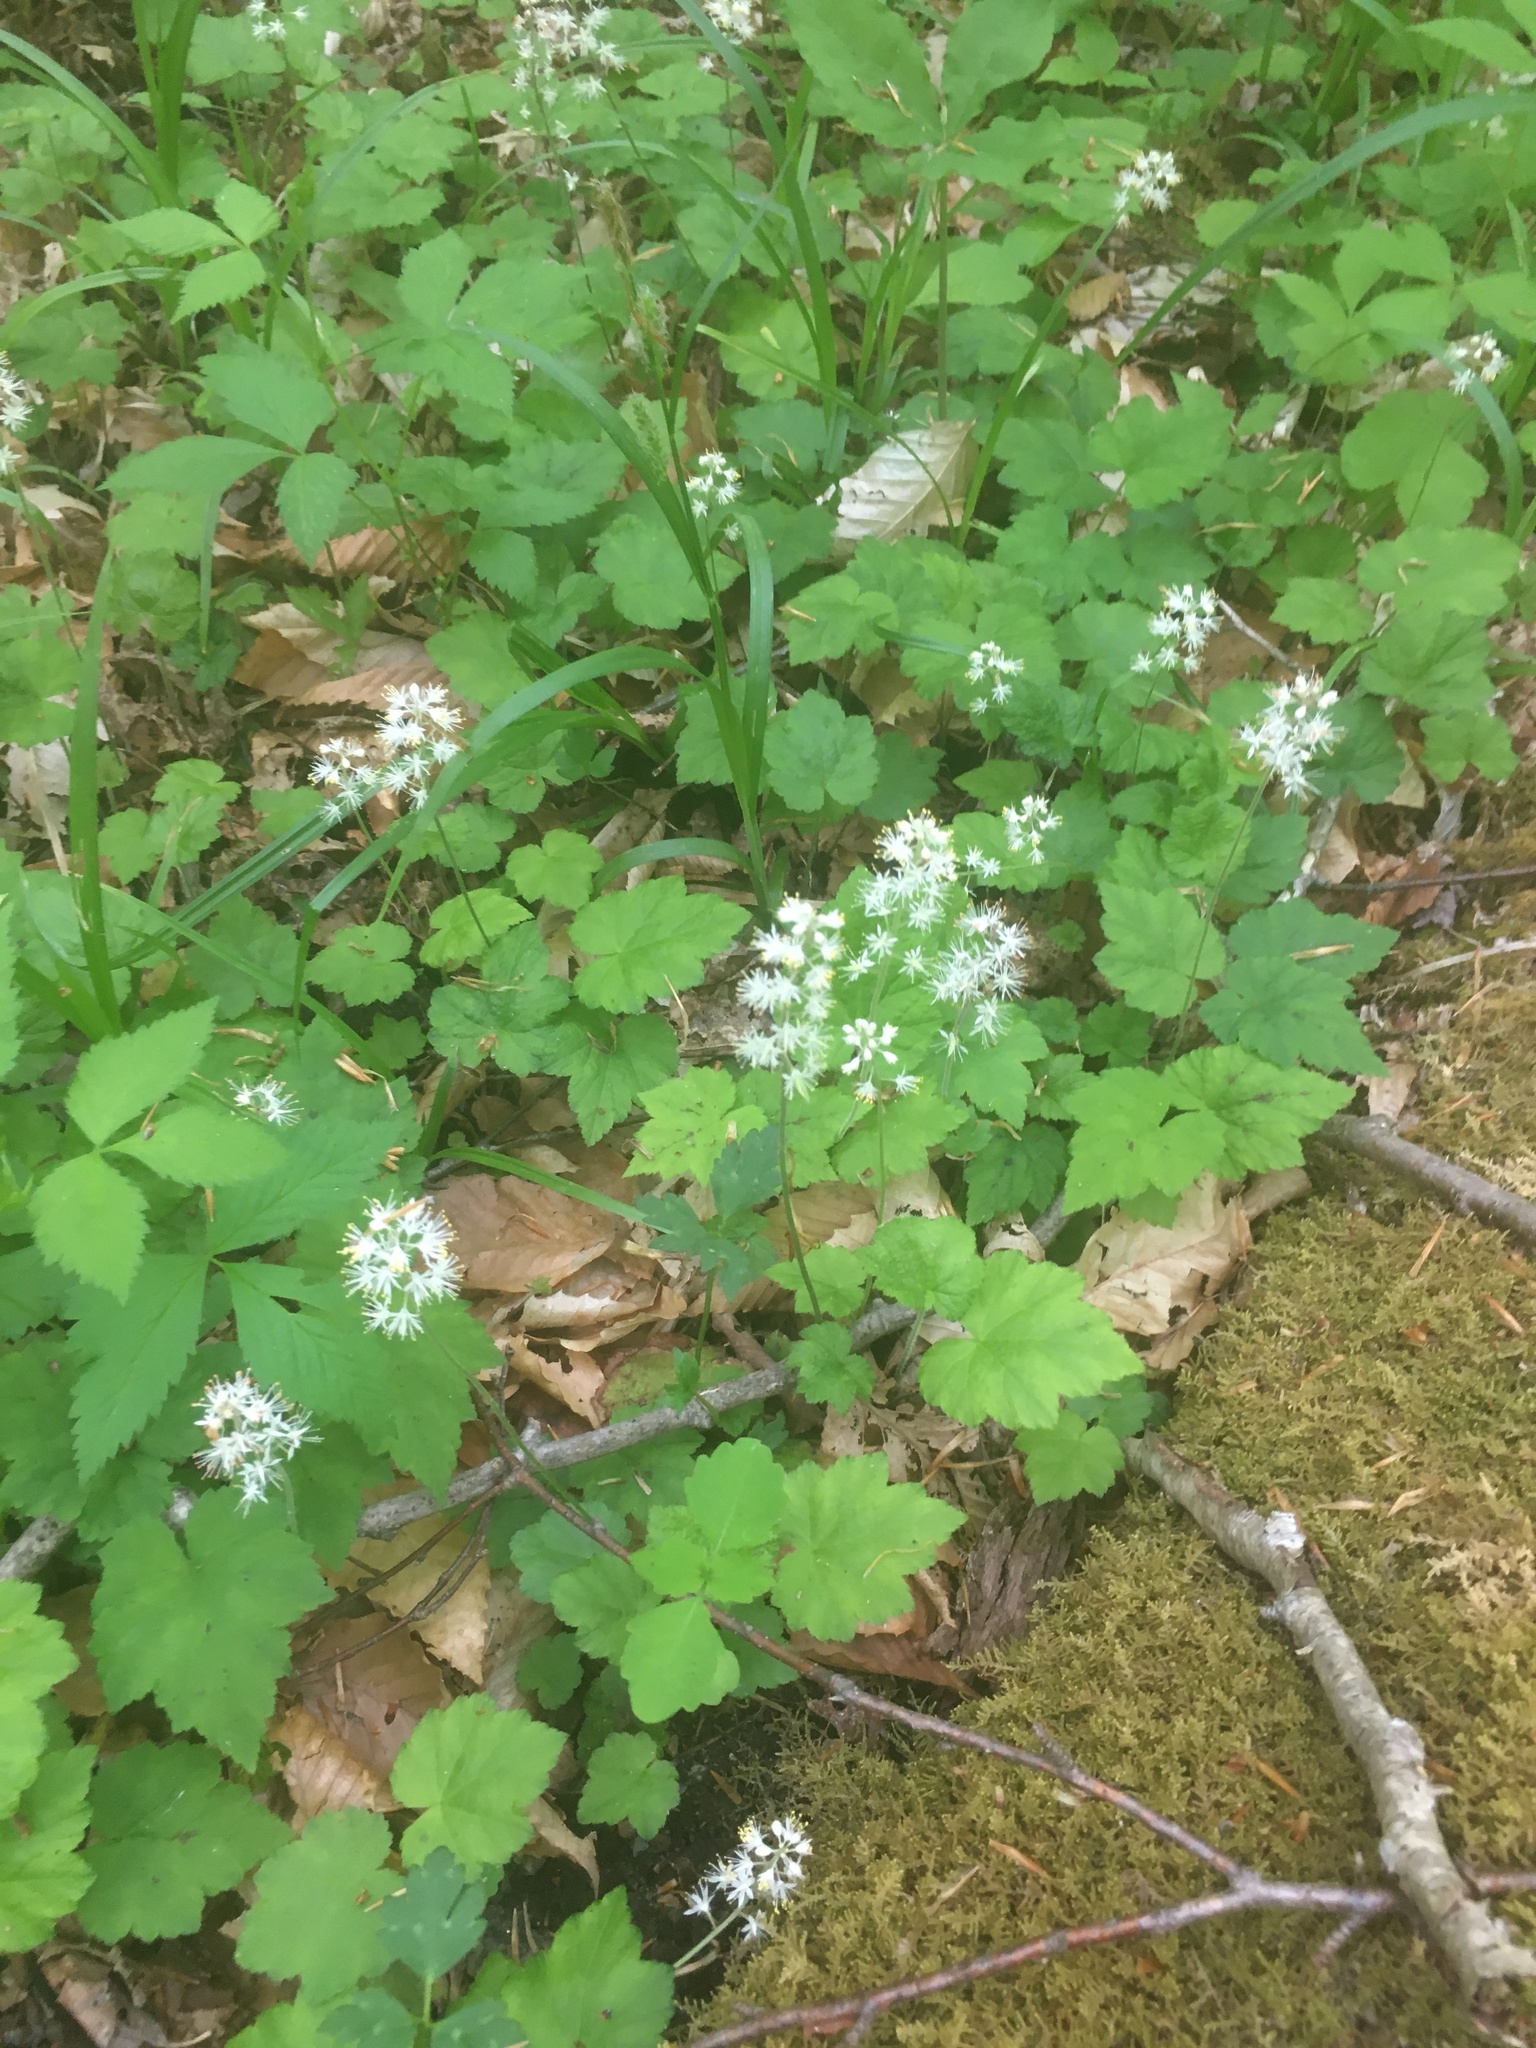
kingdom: Plantae
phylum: Tracheophyta
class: Magnoliopsida
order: Saxifragales
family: Saxifragaceae
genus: Tiarella
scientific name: Tiarella stolonifera
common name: Stoloniferous foamflower
